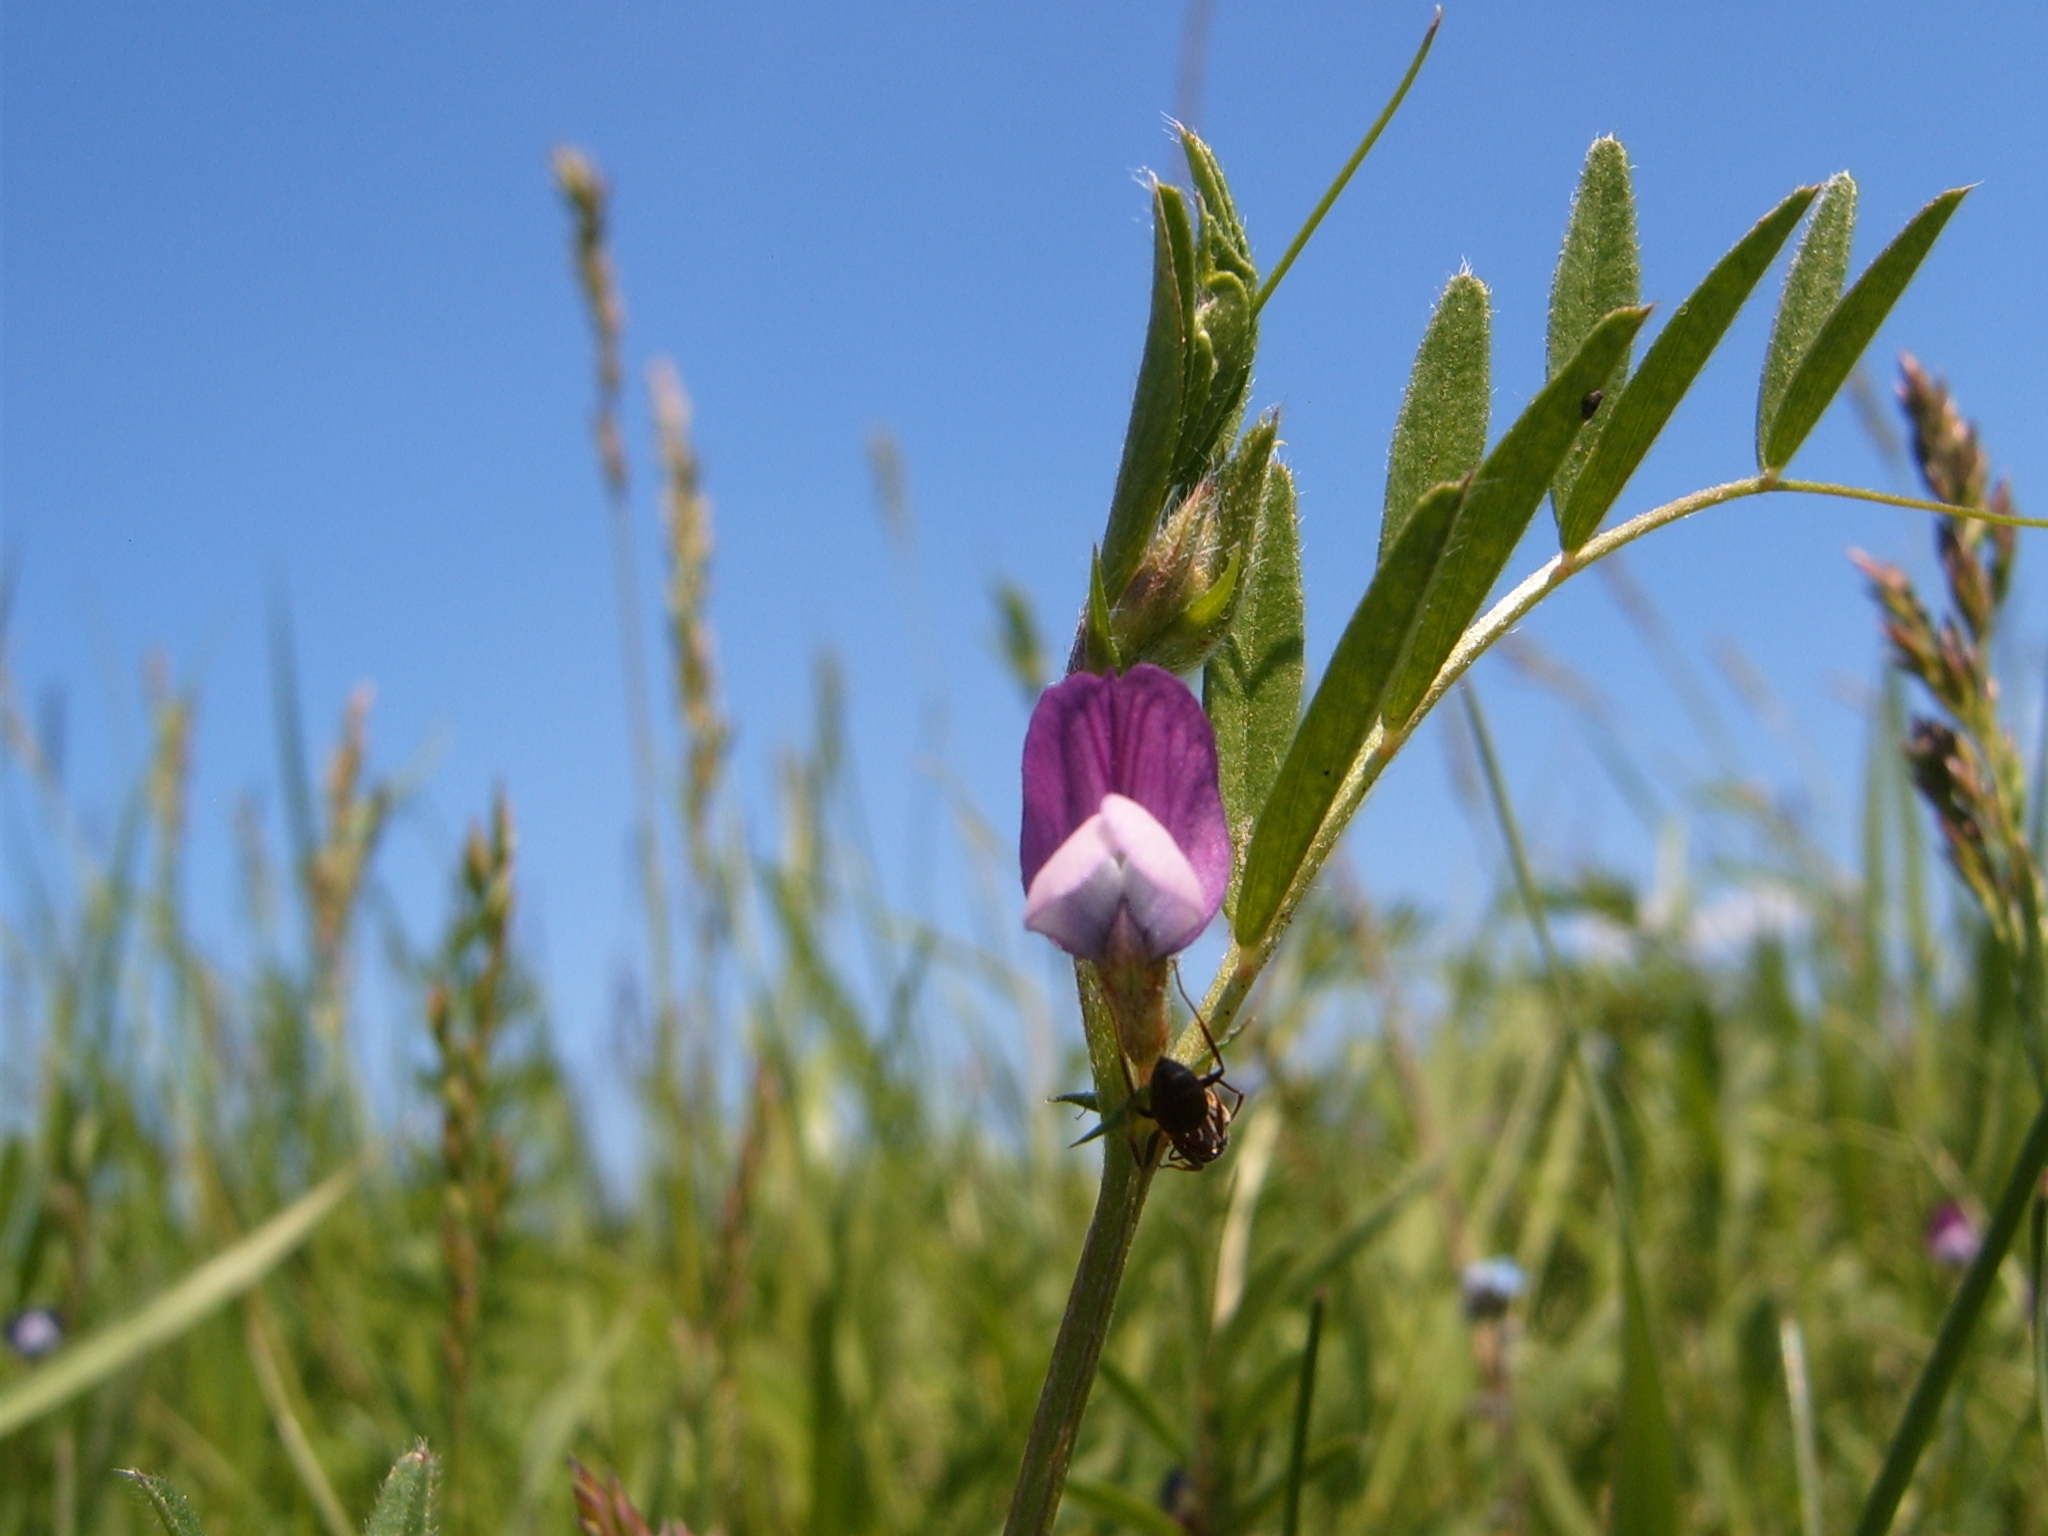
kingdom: Plantae
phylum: Tracheophyta
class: Magnoliopsida
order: Fabales
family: Fabaceae
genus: Vicia
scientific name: Vicia sativa
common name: Garden vetch
